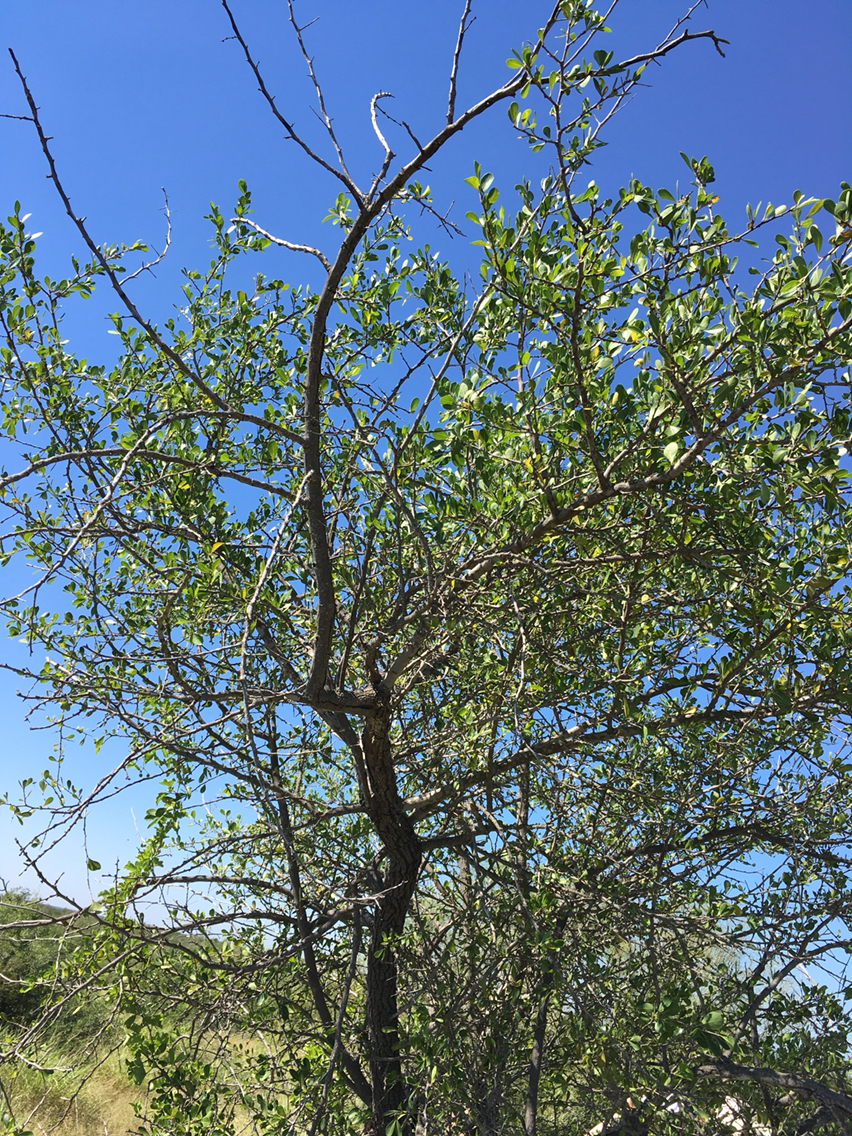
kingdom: Plantae
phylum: Tracheophyta
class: Magnoliopsida
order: Ericales
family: Sapotaceae
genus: Sideroxylon
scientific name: Sideroxylon celastrinum
